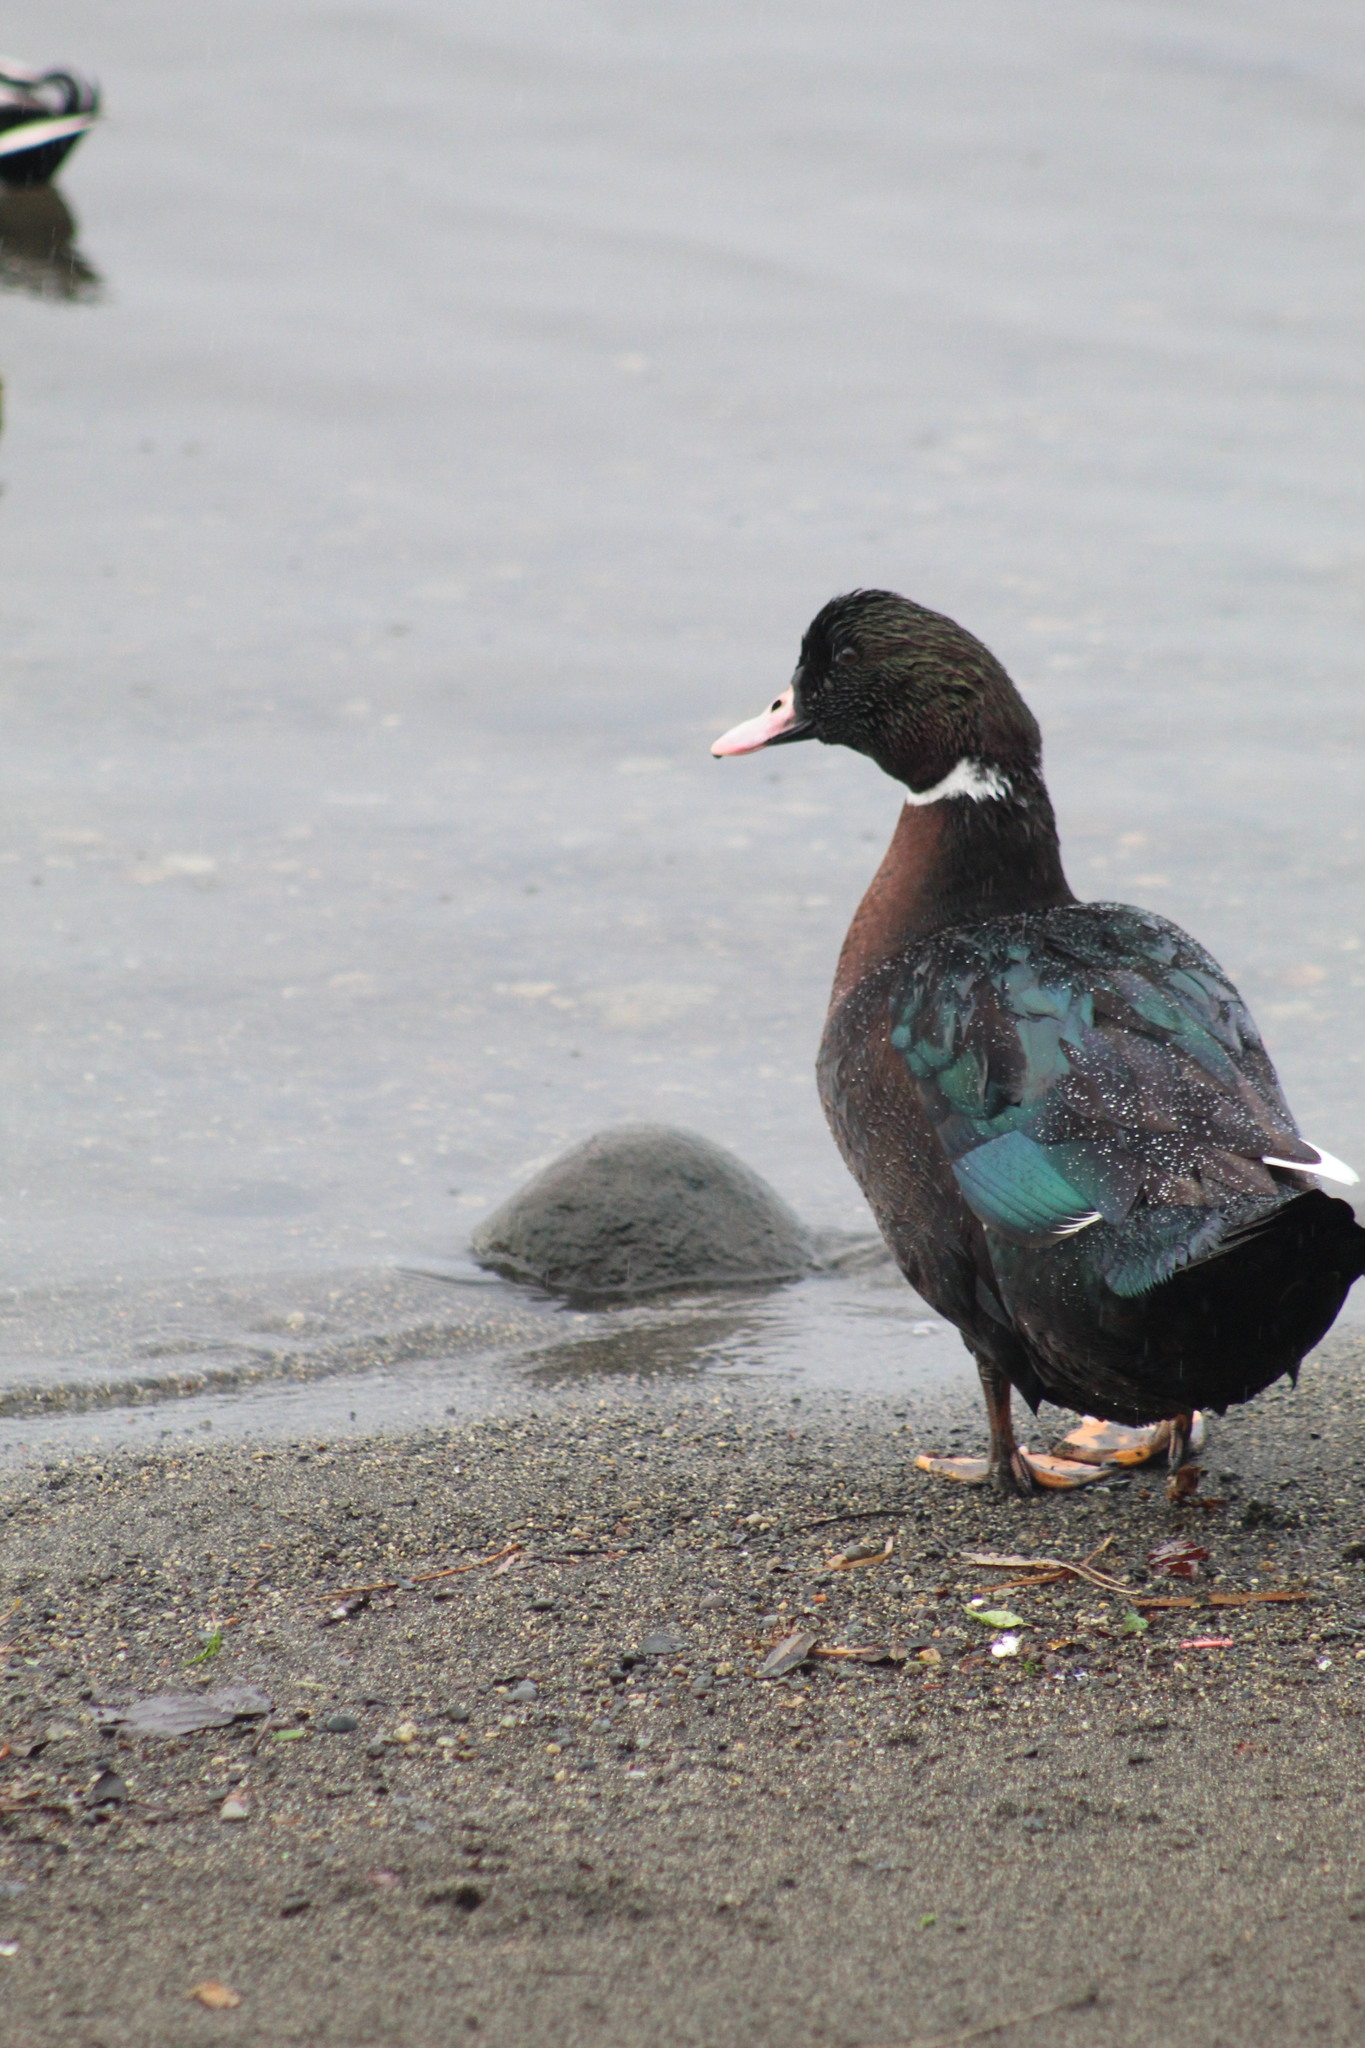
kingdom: Animalia
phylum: Chordata
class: Aves
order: Anseriformes
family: Anatidae
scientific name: Anatidae
